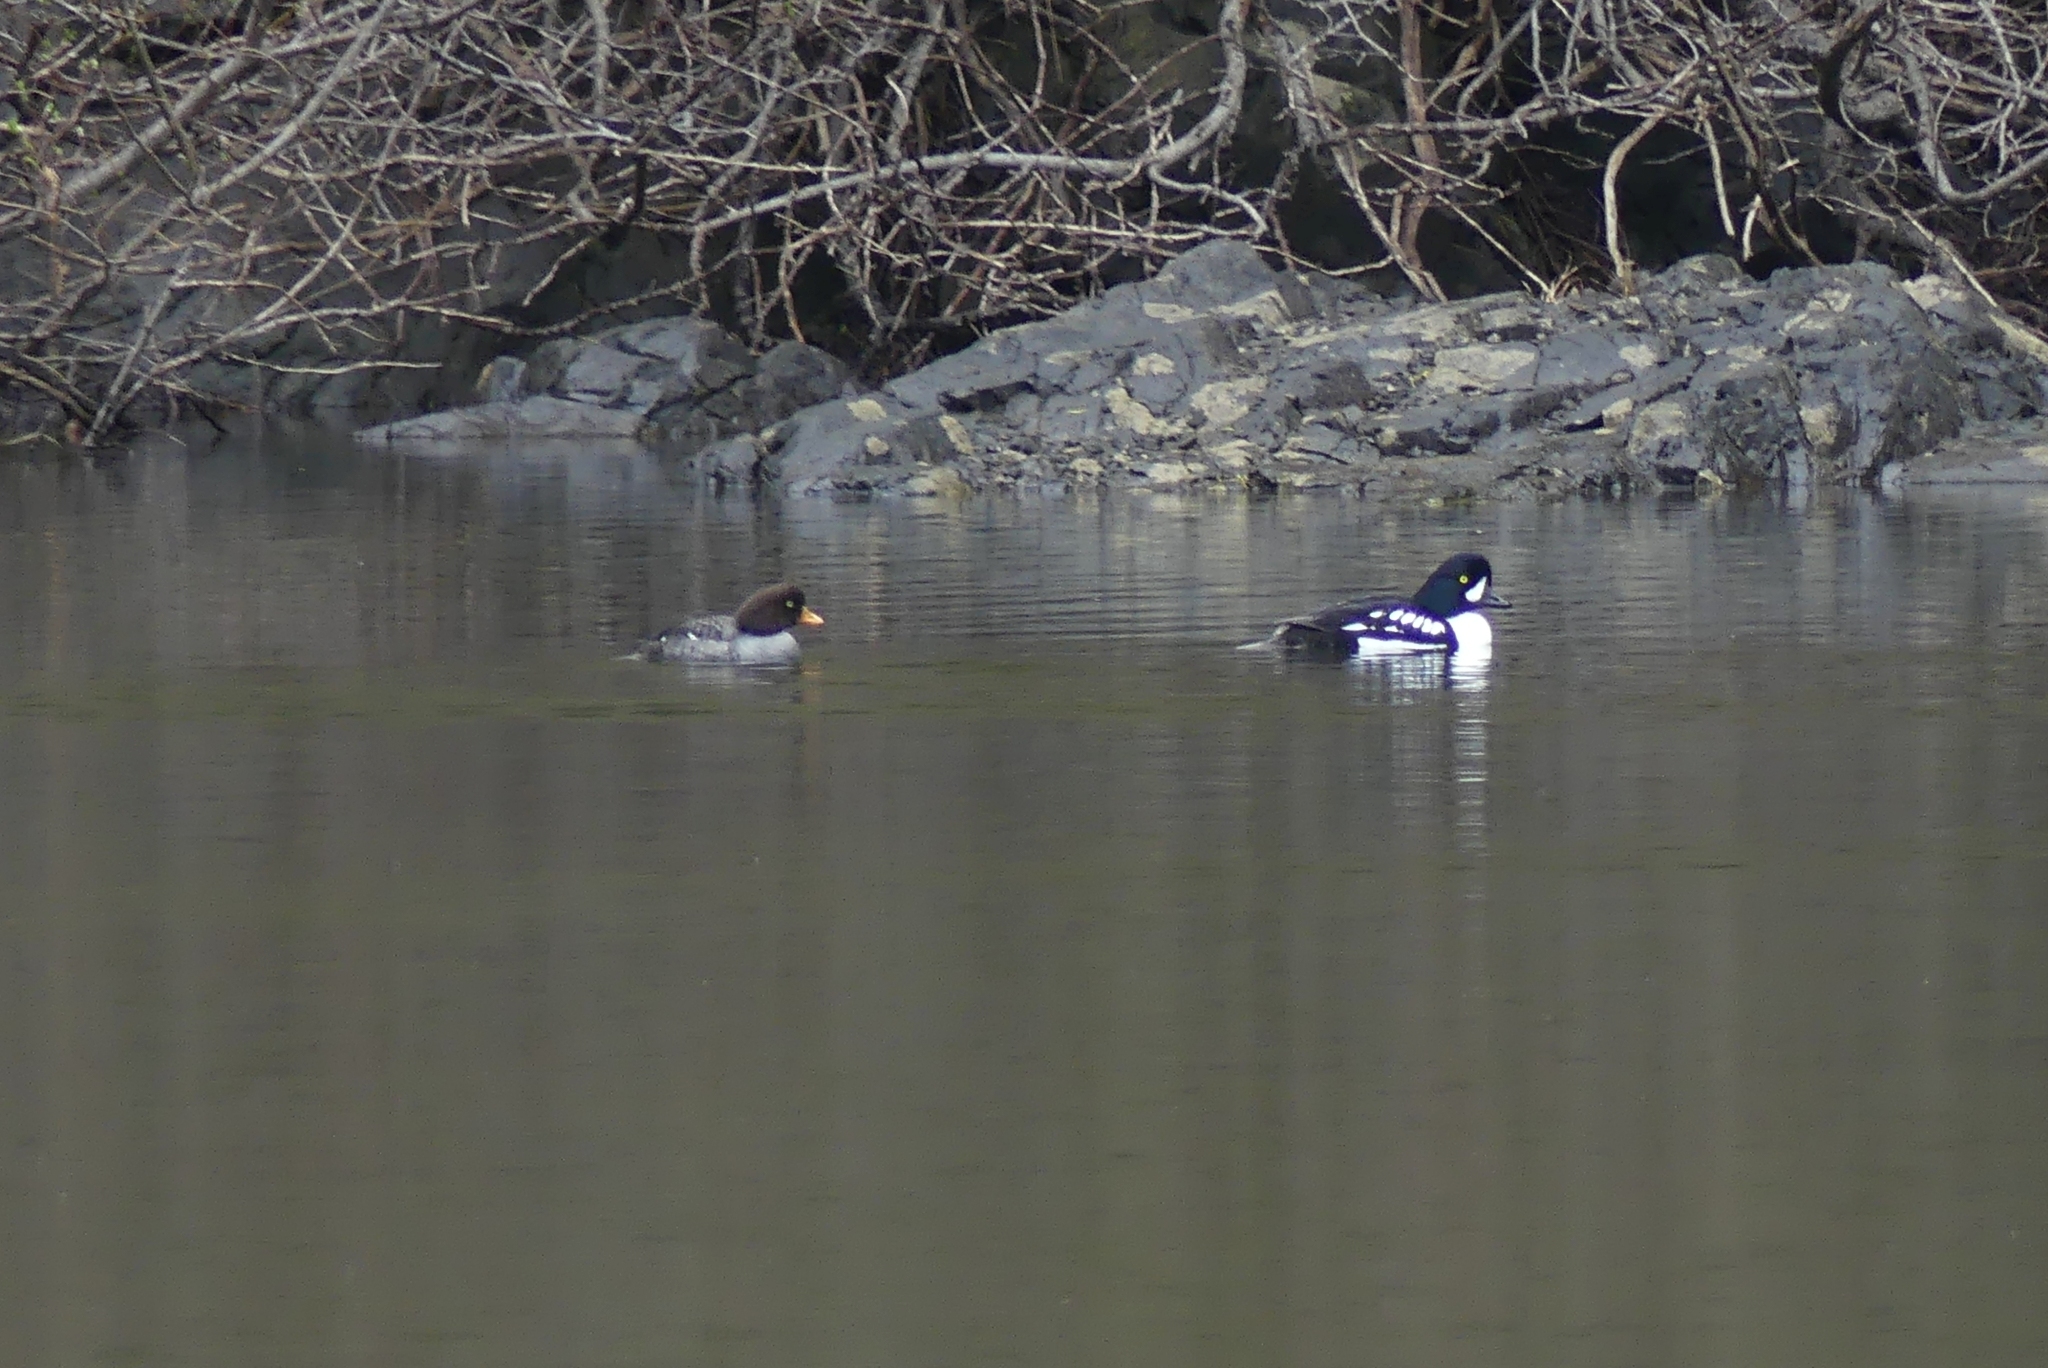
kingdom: Animalia
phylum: Chordata
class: Aves
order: Anseriformes
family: Anatidae
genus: Bucephala
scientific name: Bucephala islandica
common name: Barrow's goldeneye
